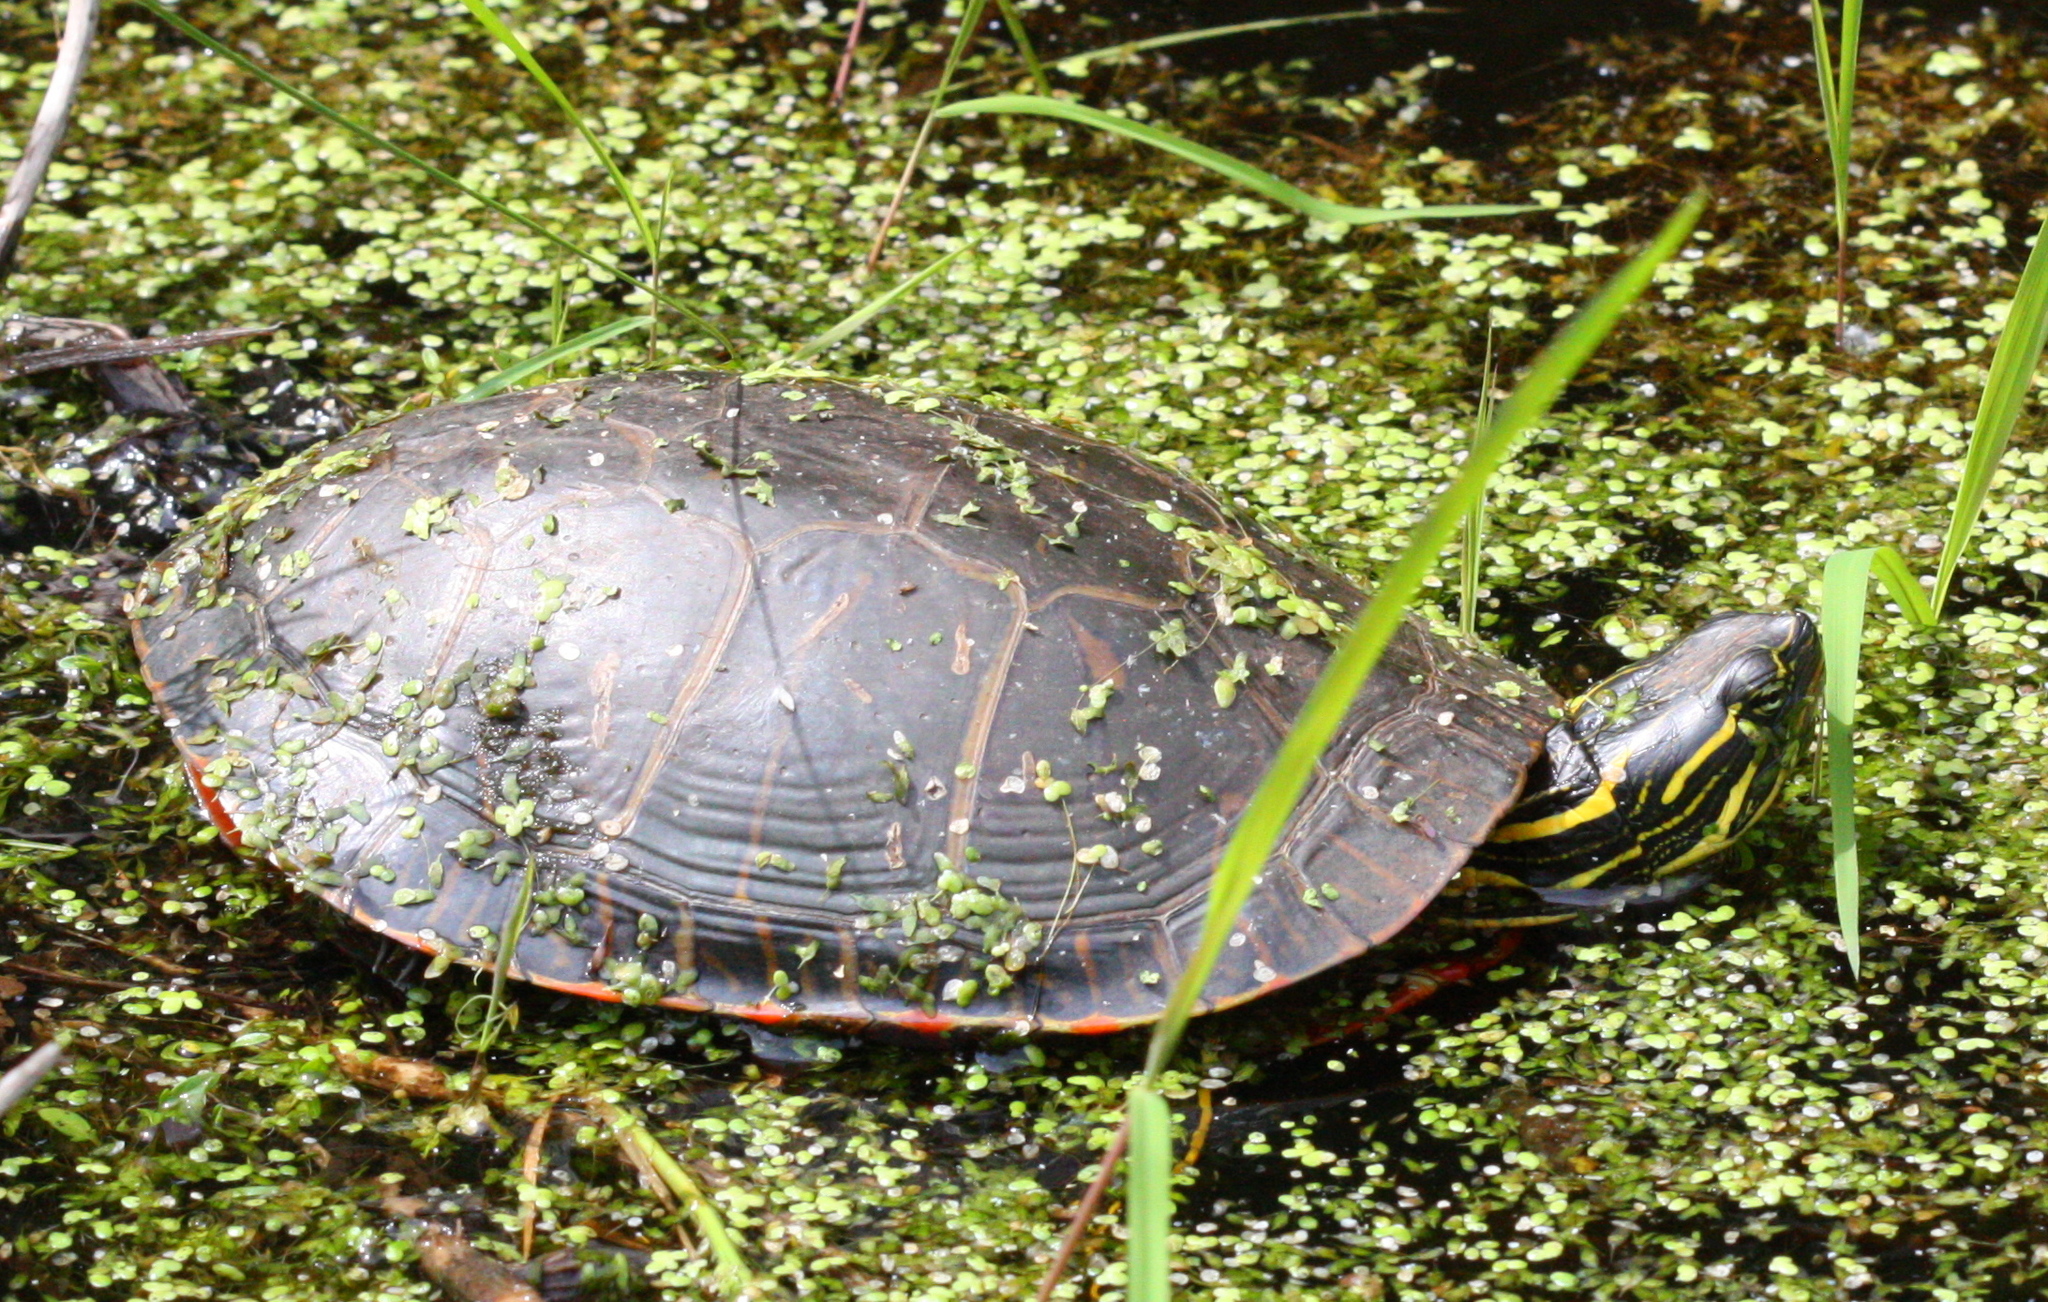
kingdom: Animalia
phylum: Chordata
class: Testudines
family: Emydidae
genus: Chrysemys
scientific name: Chrysemys picta
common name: Painted turtle
